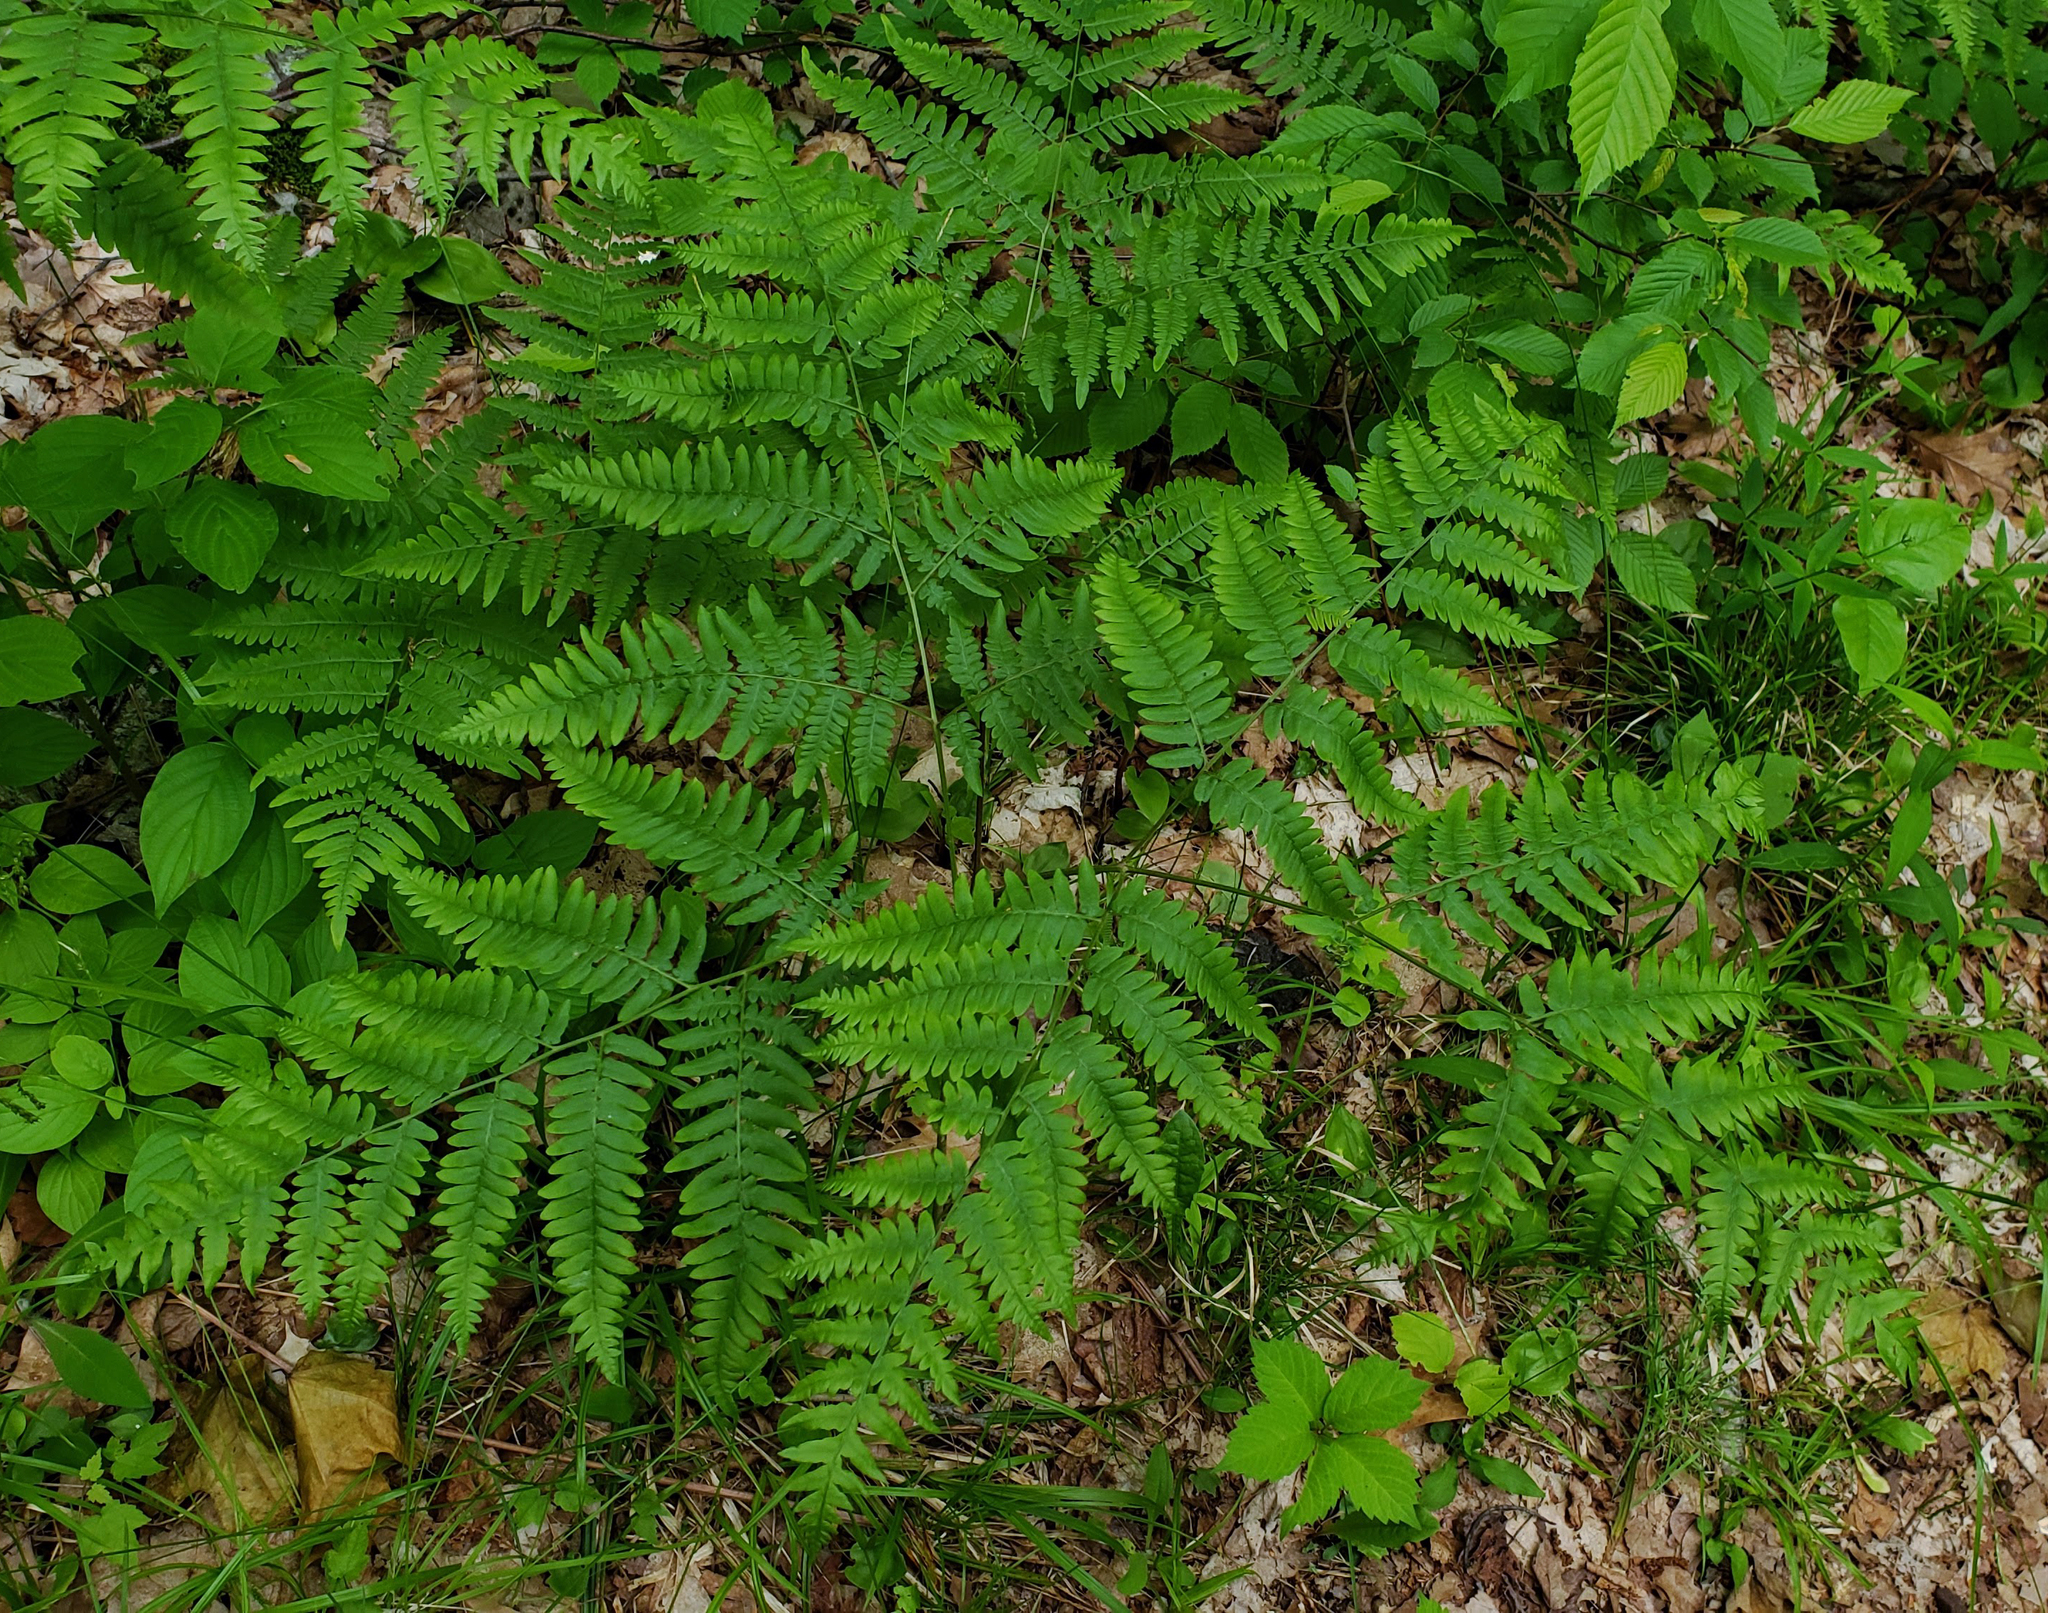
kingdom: Plantae
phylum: Tracheophyta
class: Polypodiopsida
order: Polypodiales
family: Dennstaedtiaceae
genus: Pteridium
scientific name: Pteridium aquilinum
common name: Bracken
